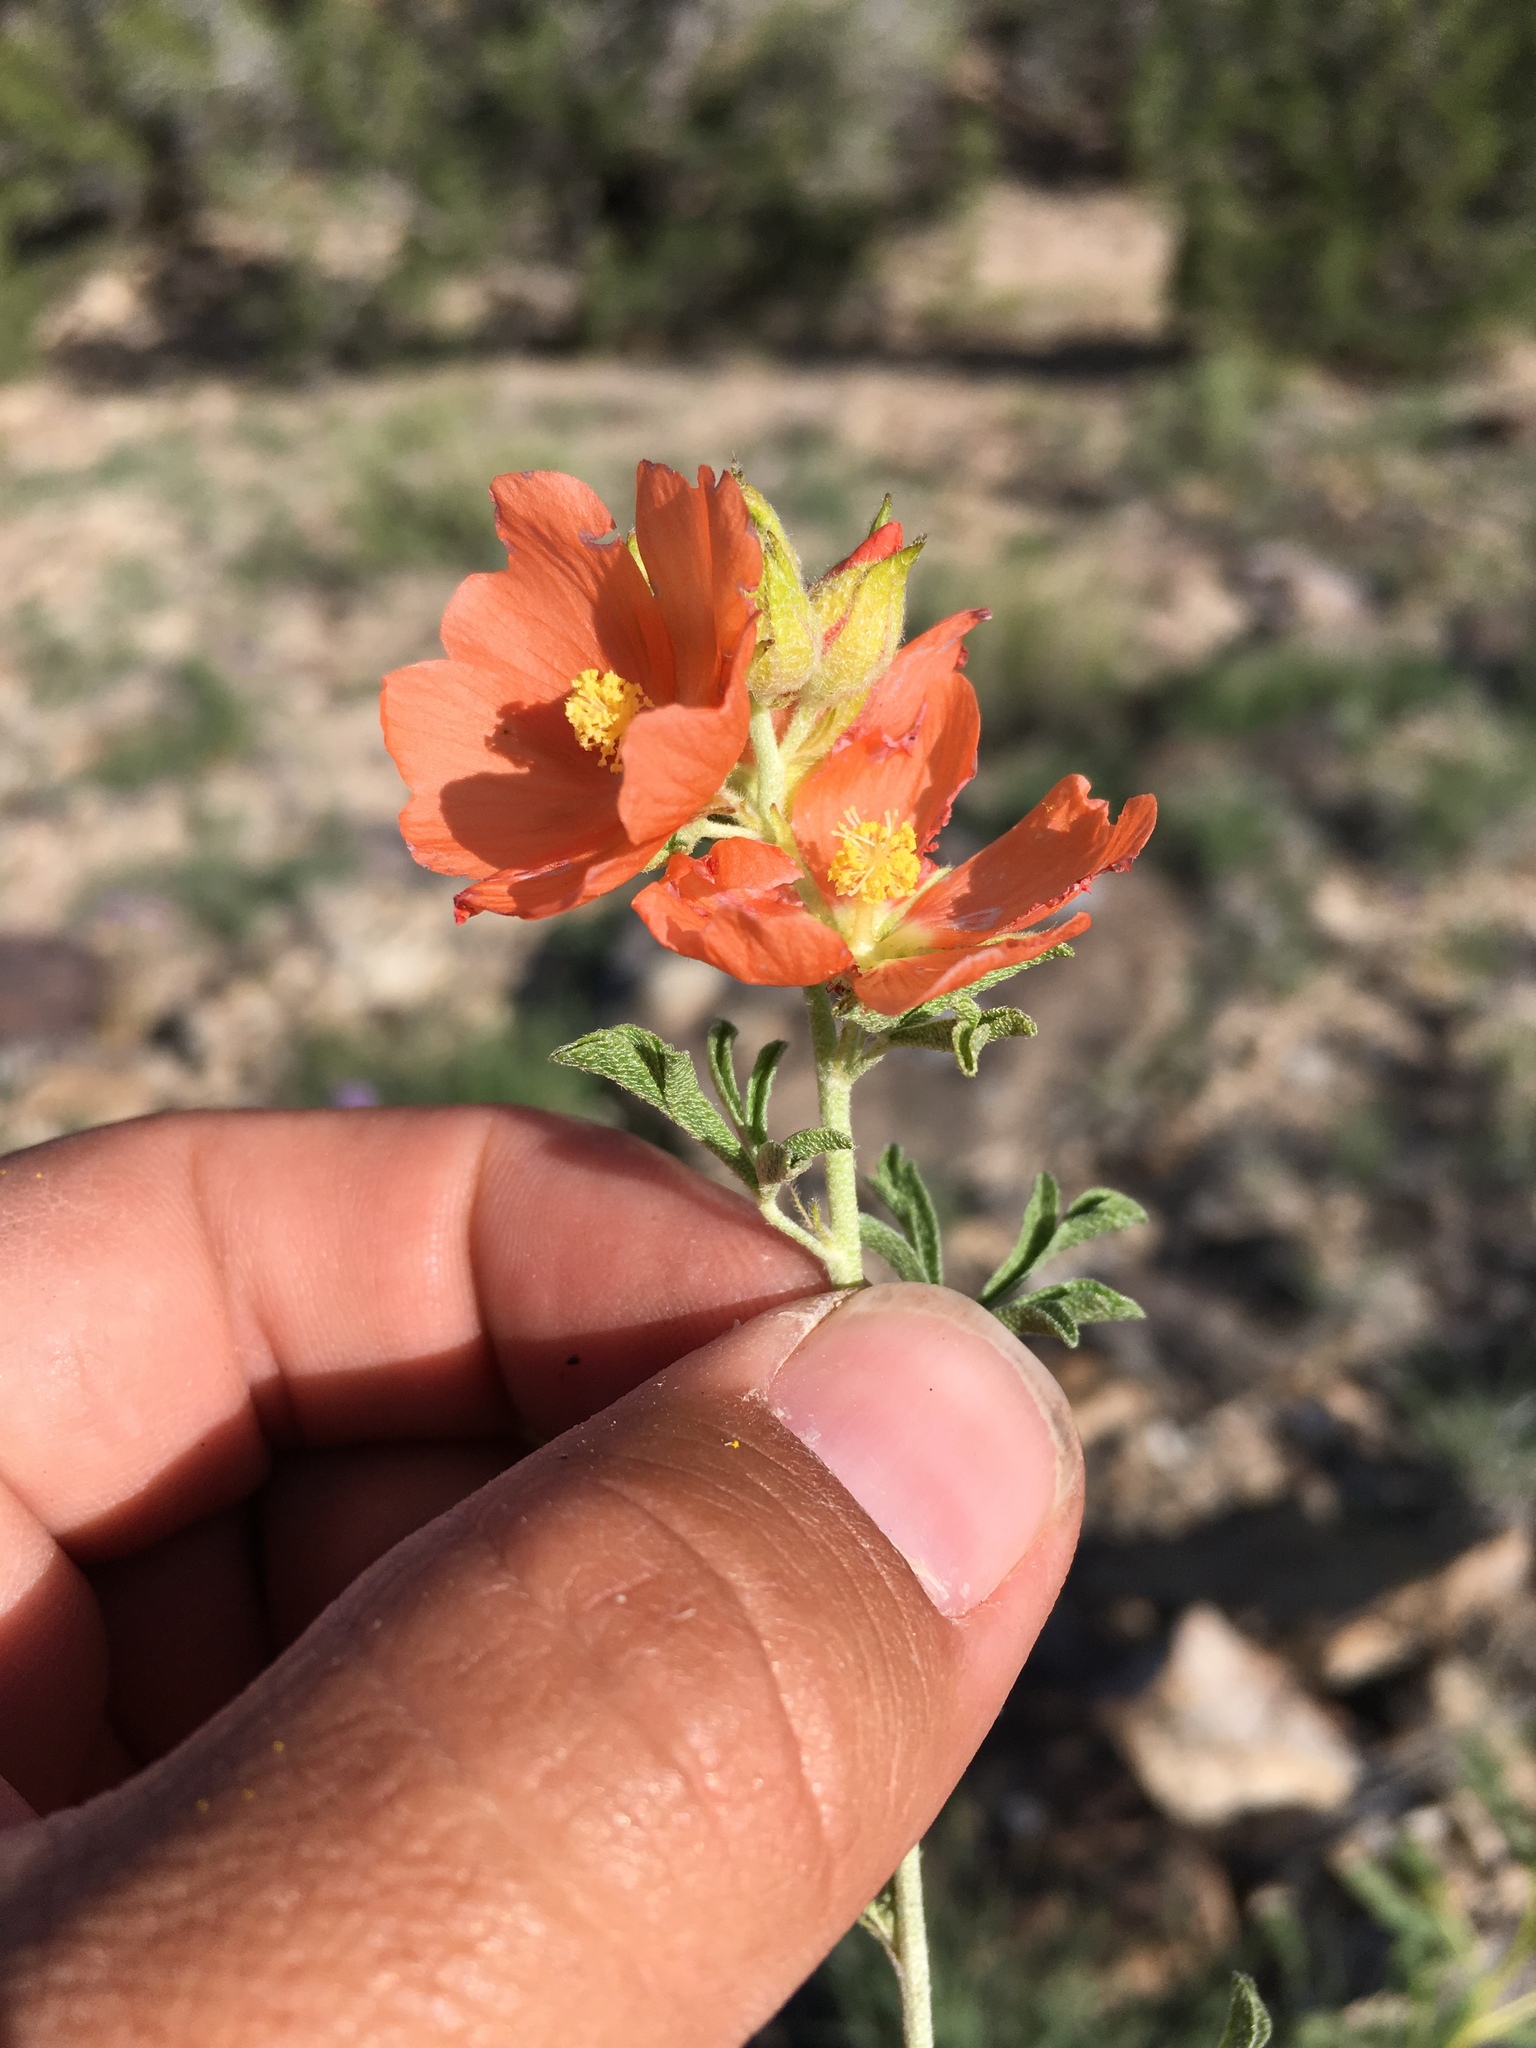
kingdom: Plantae
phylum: Tracheophyta
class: Magnoliopsida
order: Malvales
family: Malvaceae
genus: Sphaeralcea
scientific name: Sphaeralcea coccinea
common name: Moss-rose
